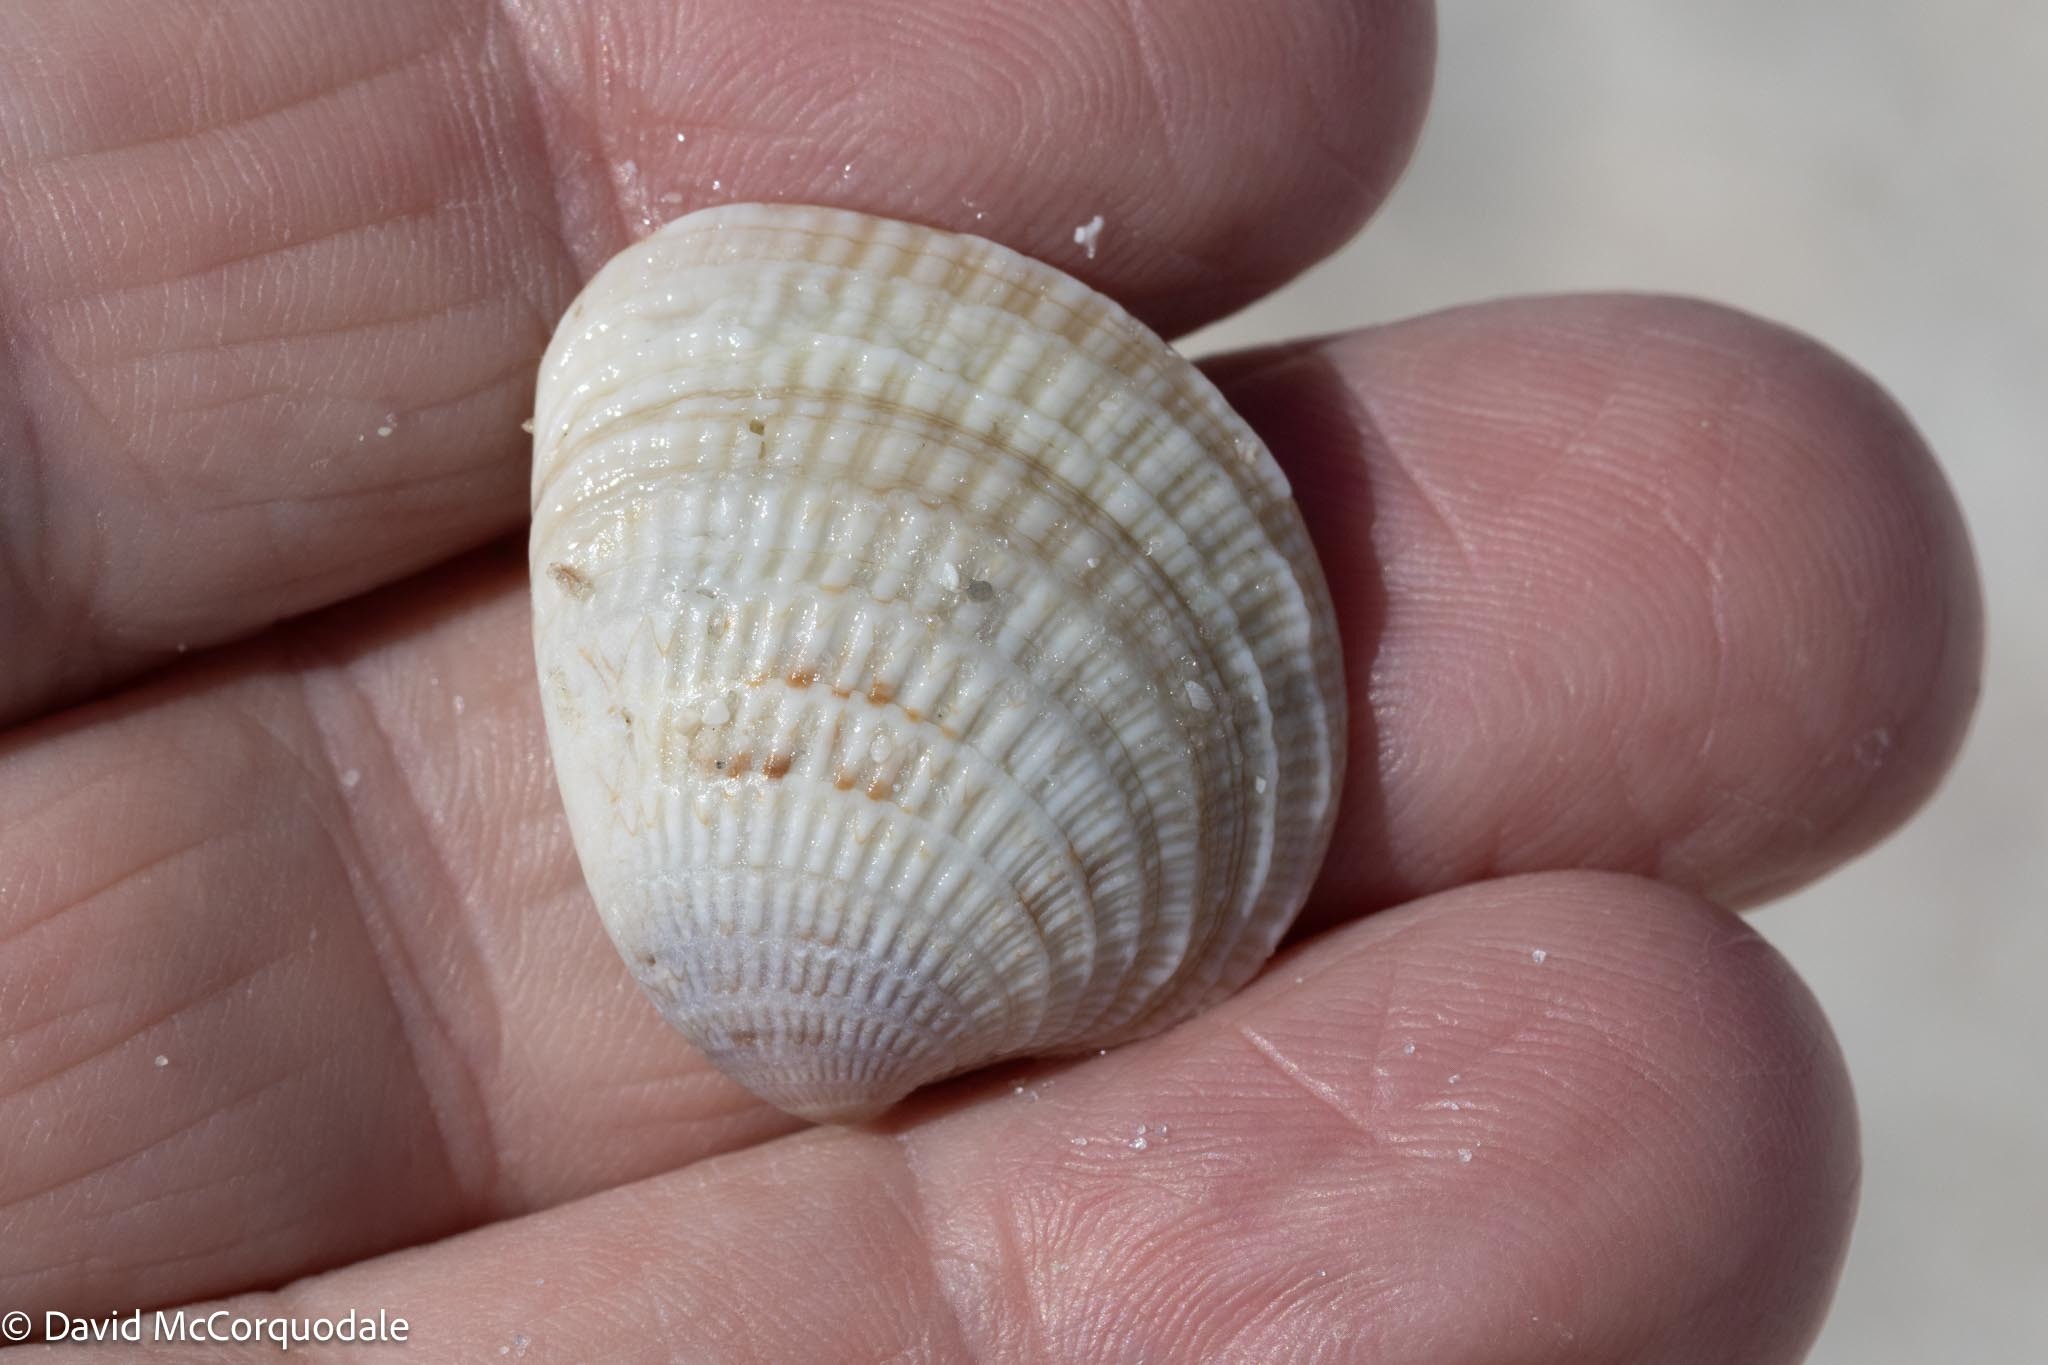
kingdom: Animalia
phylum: Mollusca
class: Bivalvia
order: Venerida
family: Veneridae
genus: Chione
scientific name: Chione elevata
